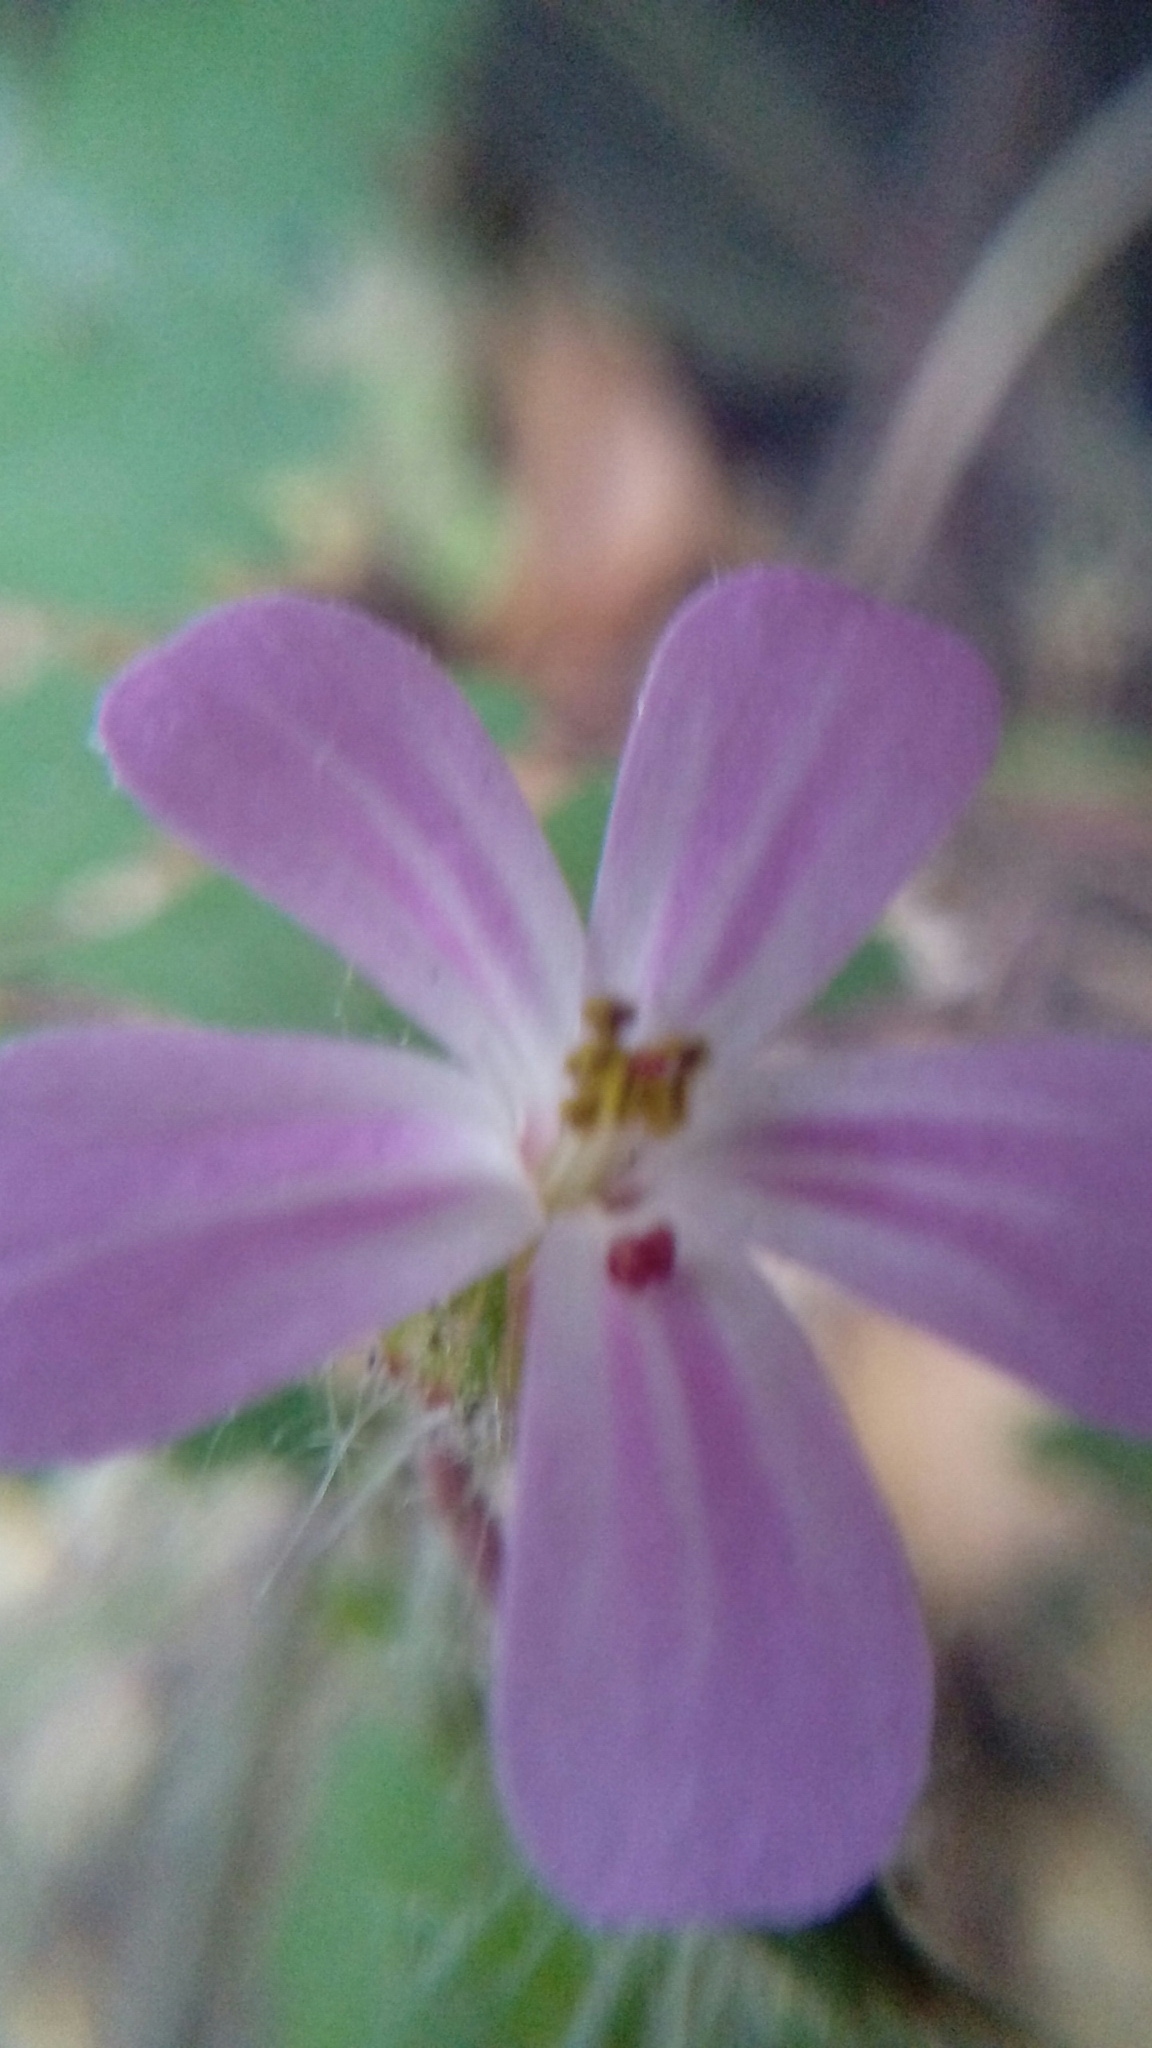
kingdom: Plantae
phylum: Tracheophyta
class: Magnoliopsida
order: Geraniales
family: Geraniaceae
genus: Geranium
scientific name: Geranium robertianum
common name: Herb-robert
